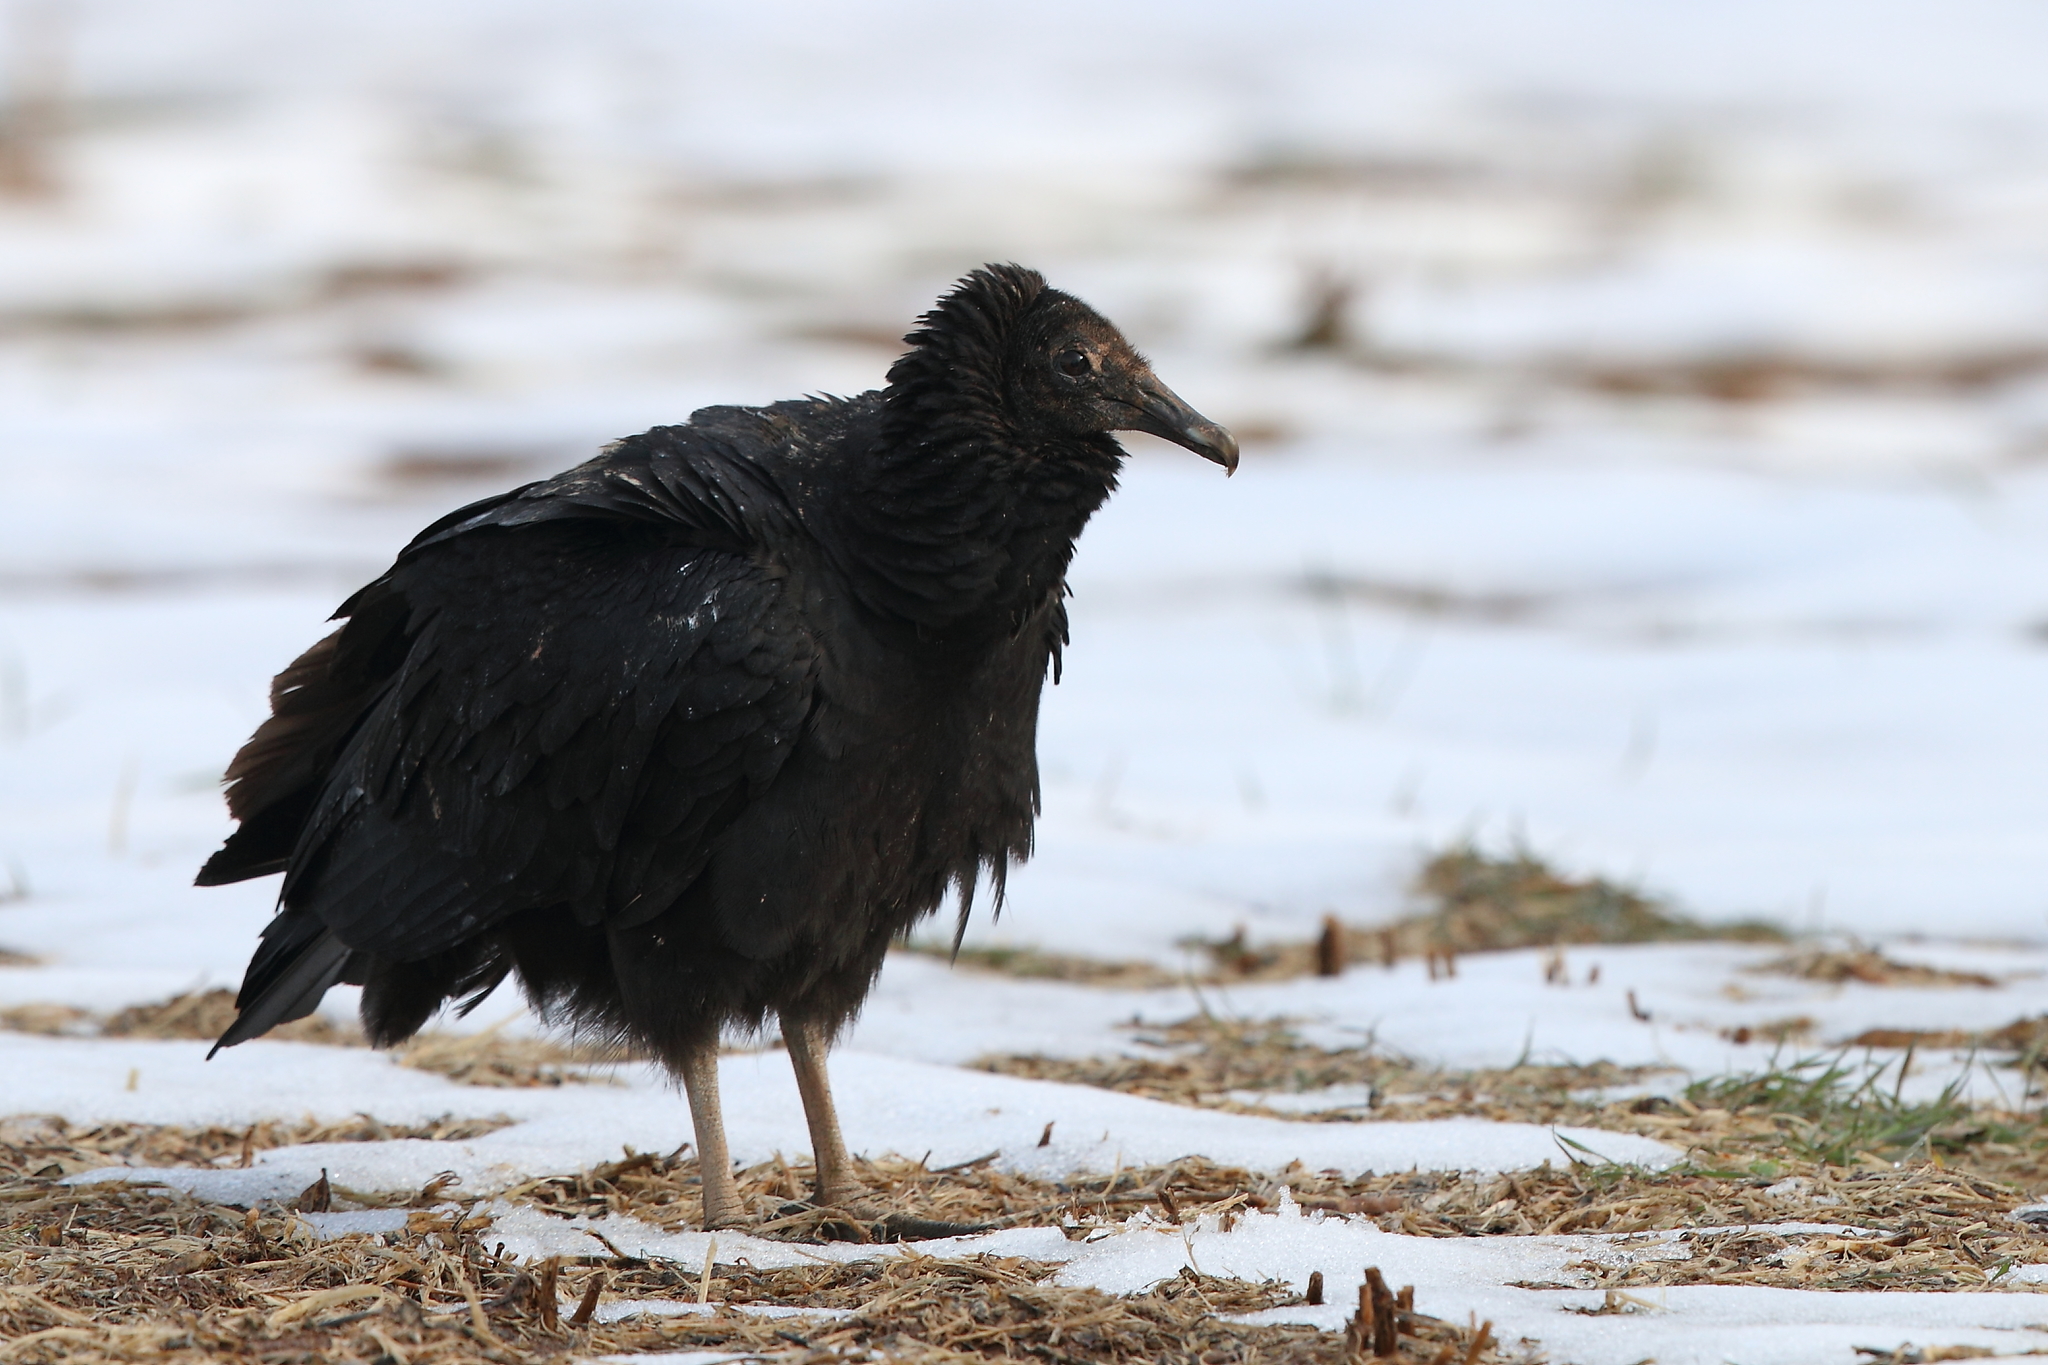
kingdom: Animalia
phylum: Chordata
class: Aves
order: Accipitriformes
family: Cathartidae
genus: Coragyps
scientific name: Coragyps atratus
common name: Black vulture
